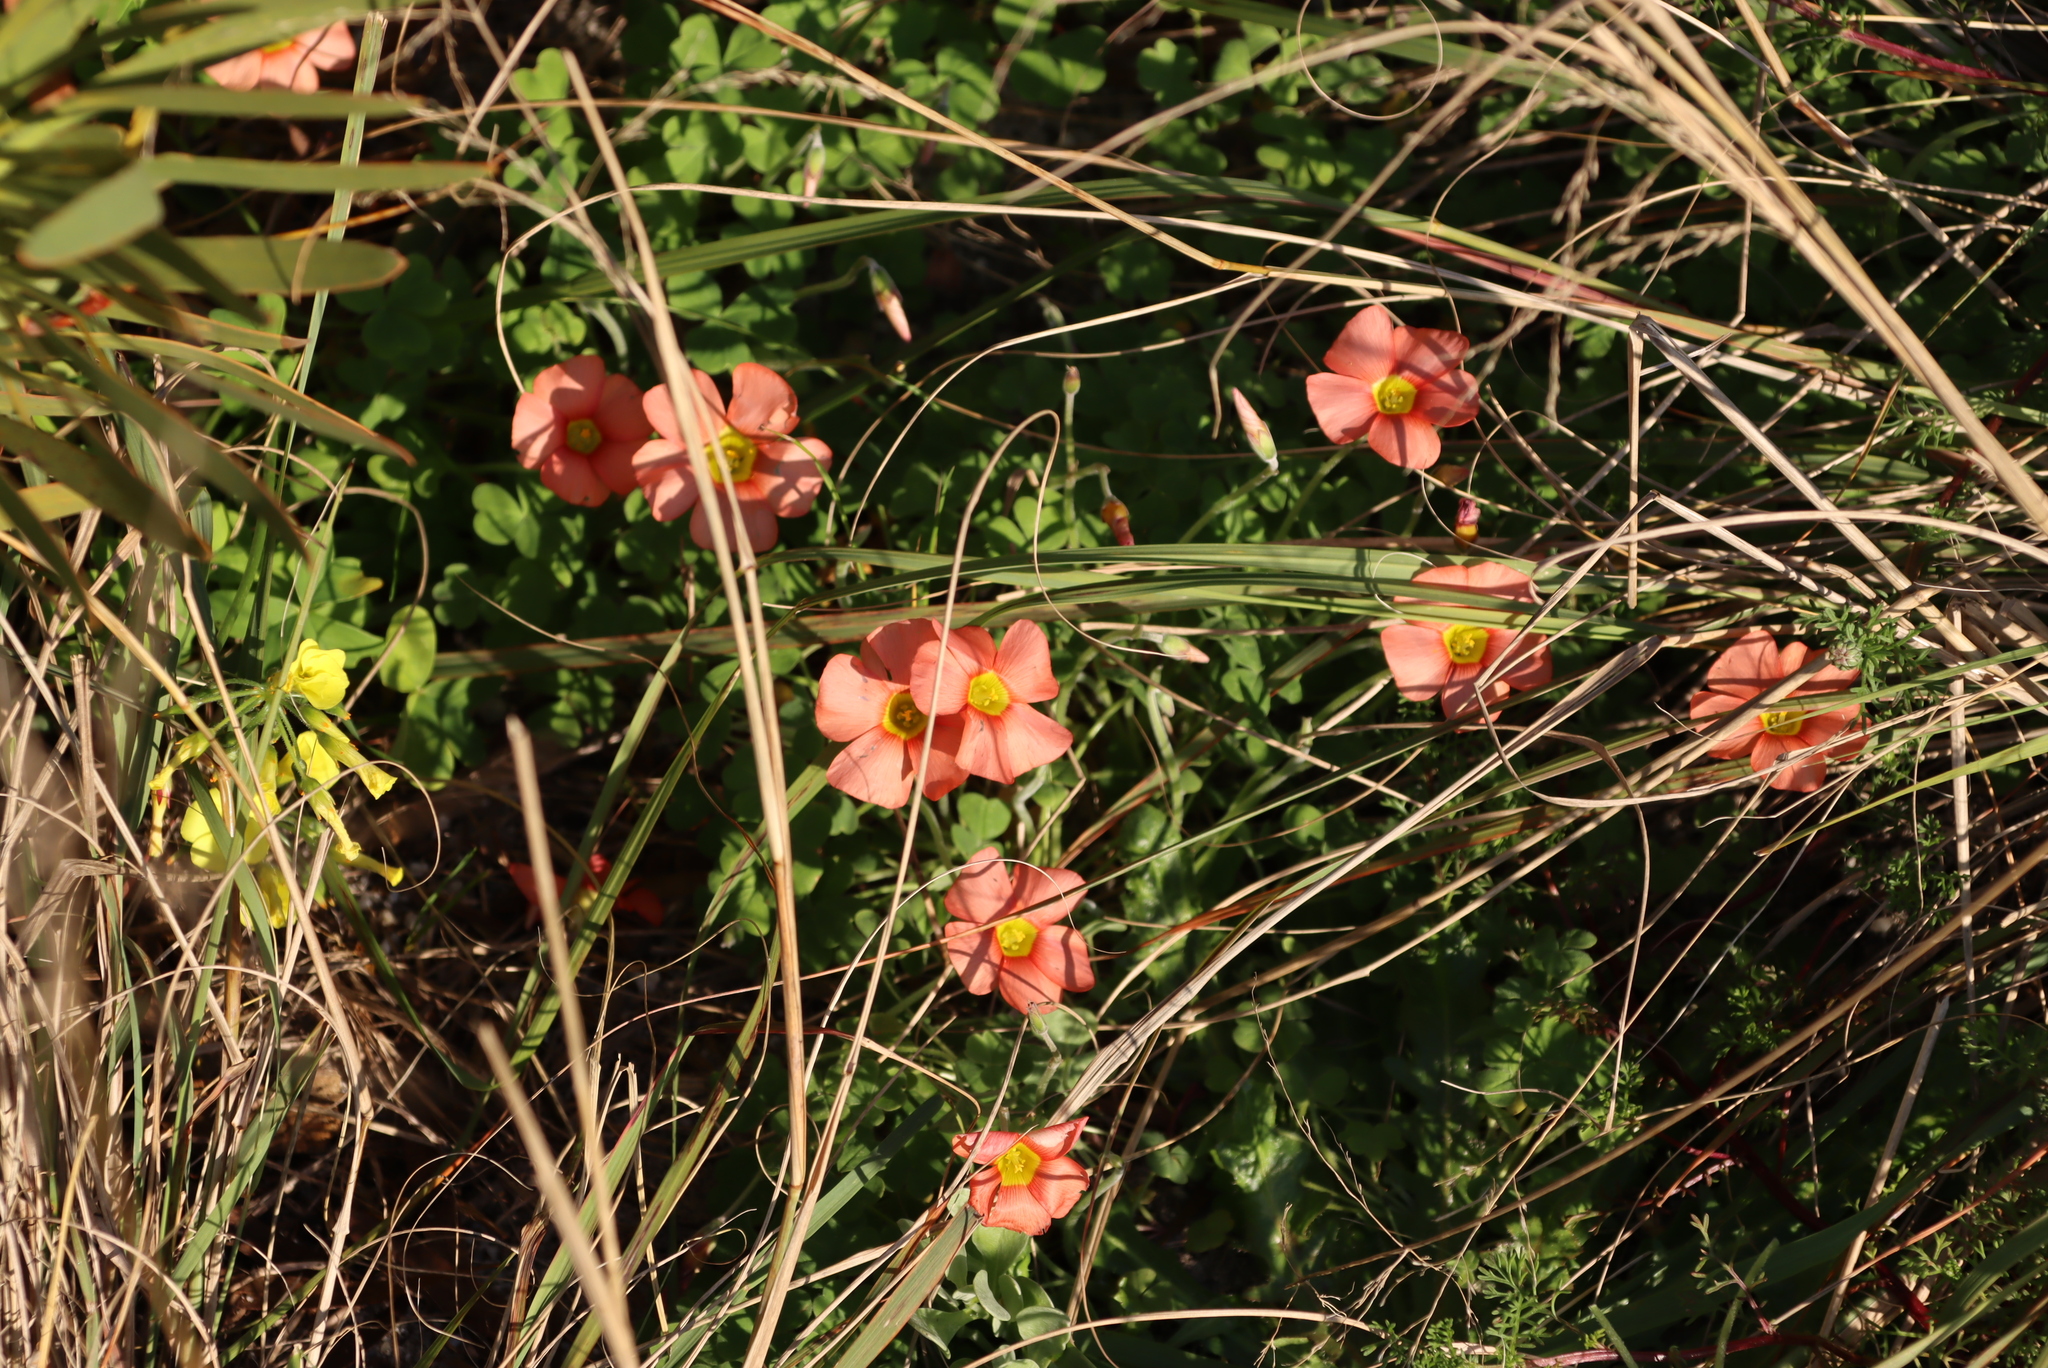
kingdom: Plantae
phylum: Tracheophyta
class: Magnoliopsida
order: Oxalidales
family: Oxalidaceae
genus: Oxalis
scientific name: Oxalis obtusa
